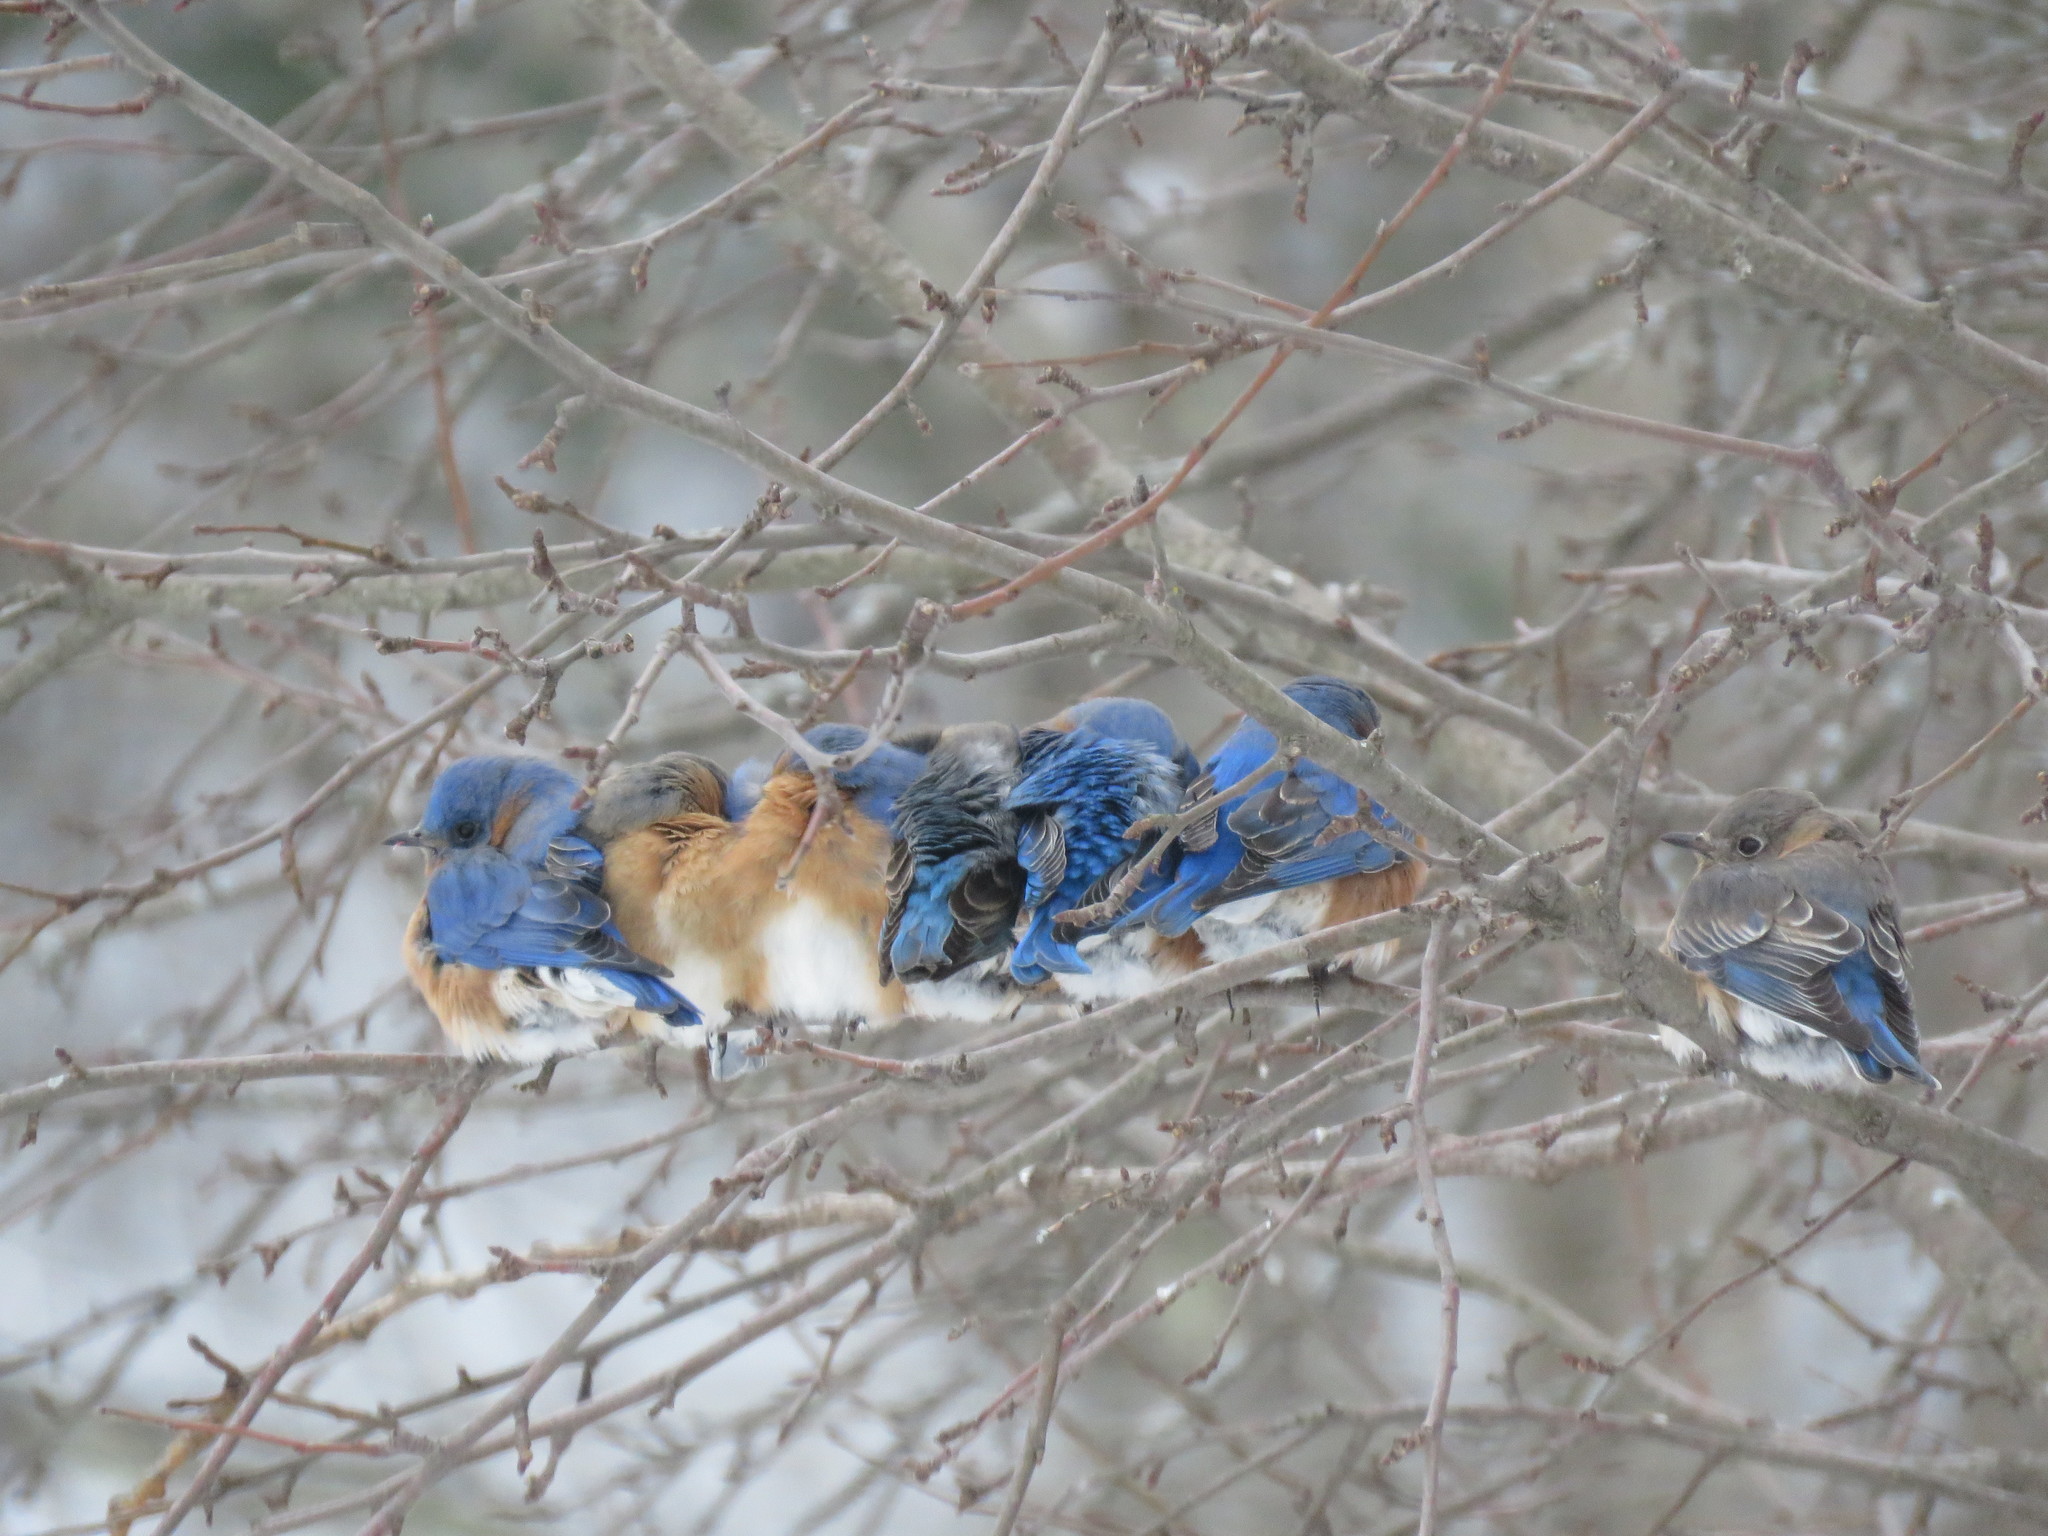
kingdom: Animalia
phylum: Chordata
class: Aves
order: Passeriformes
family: Turdidae
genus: Sialia
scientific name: Sialia sialis
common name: Eastern bluebird
